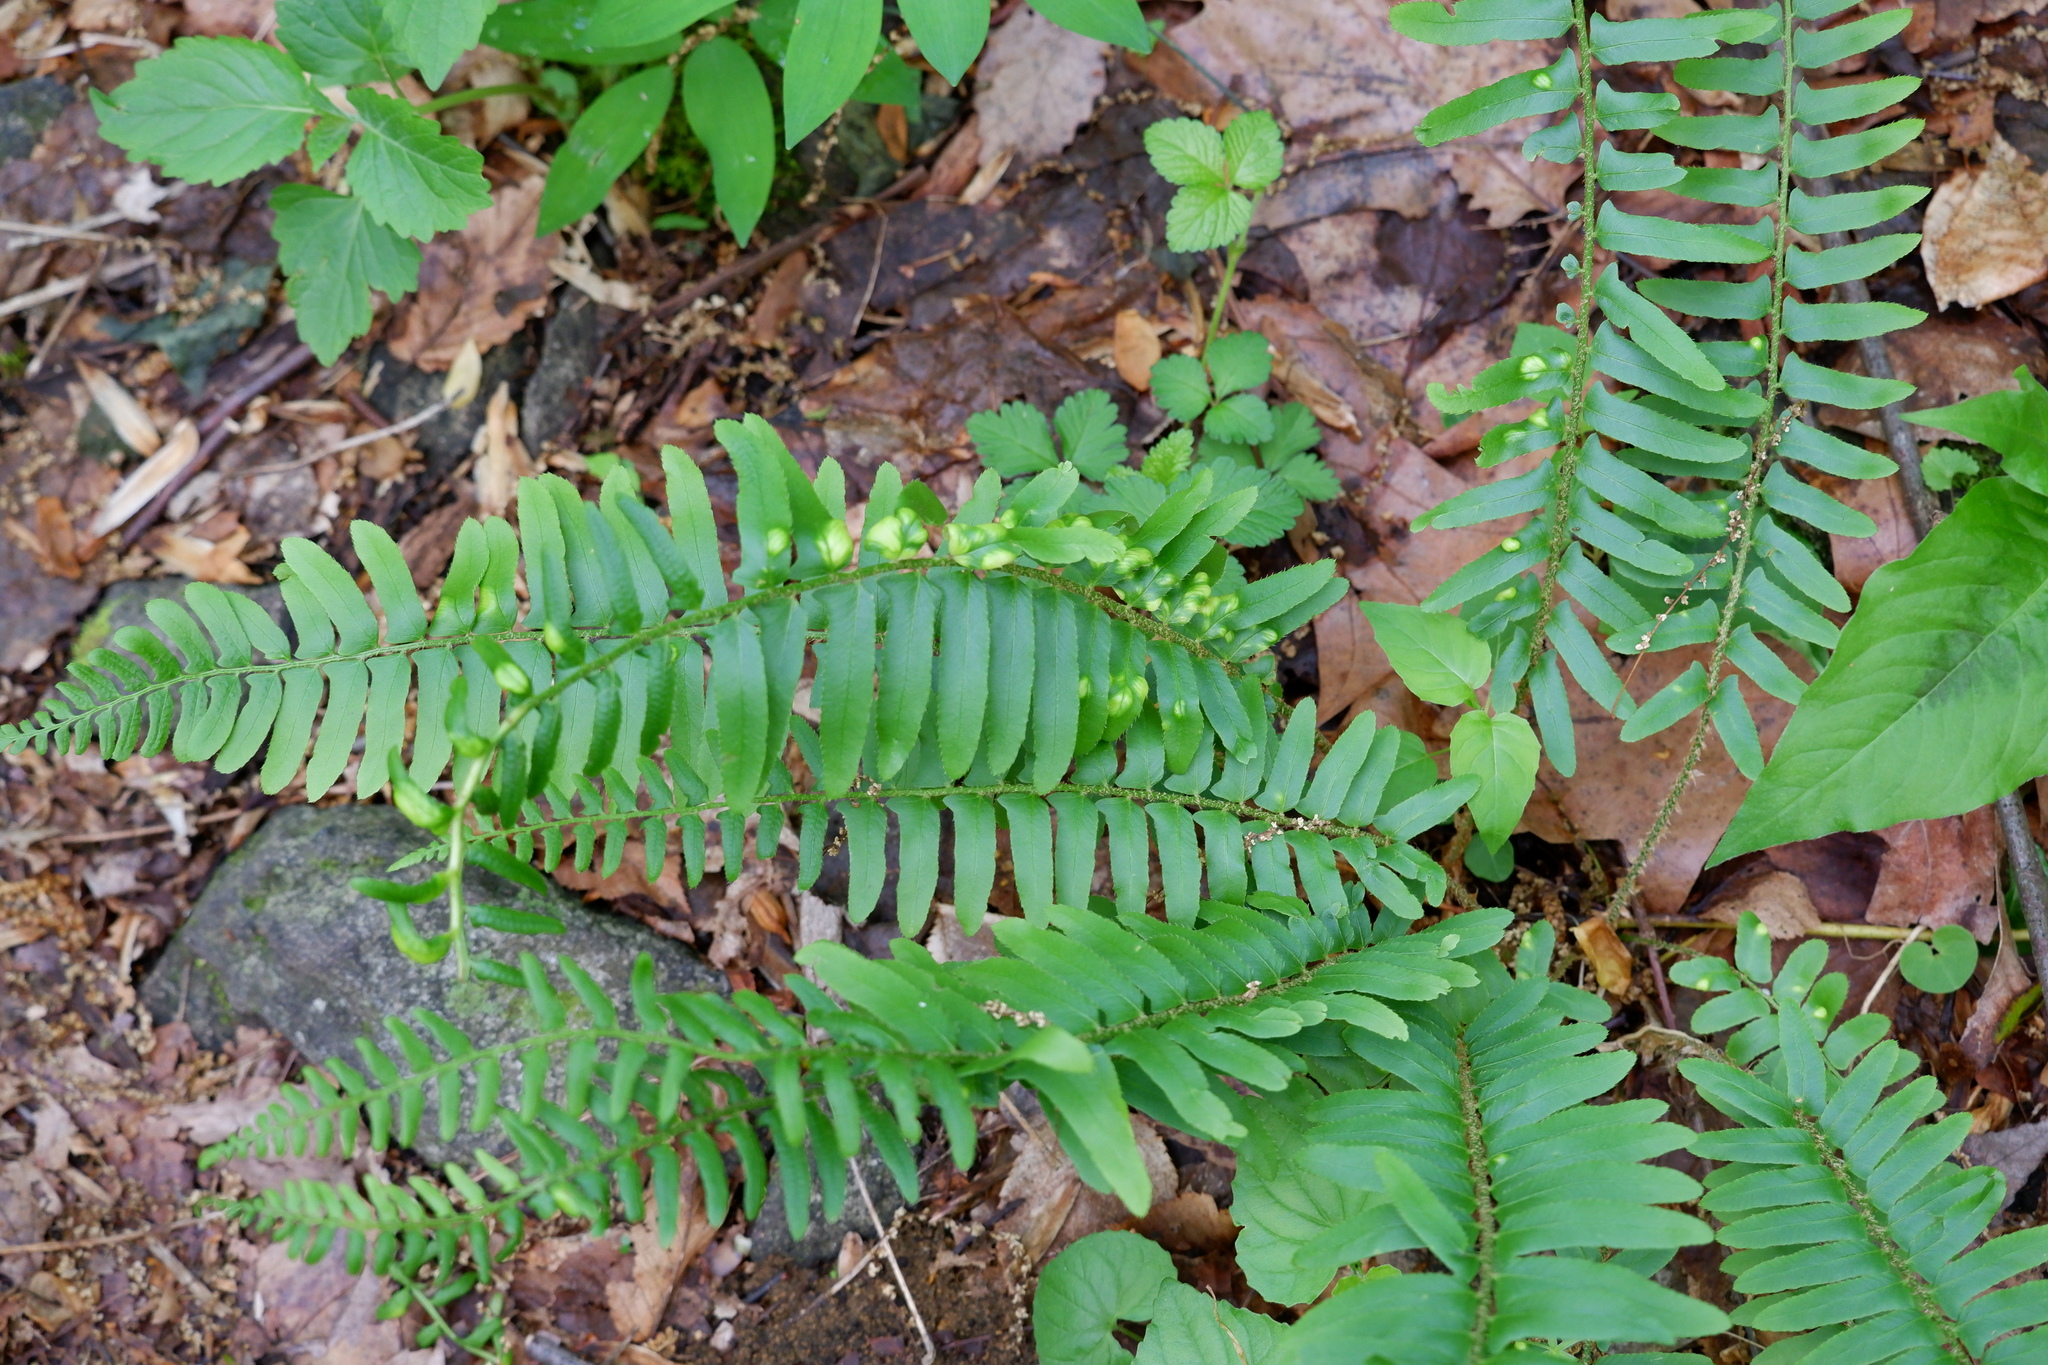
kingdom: Fungi
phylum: Ascomycota
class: Taphrinomycetes
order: Taphrinales
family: Taphrinaceae
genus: Taphrina
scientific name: Taphrina polystichi
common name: Christmas fern leaf curl
